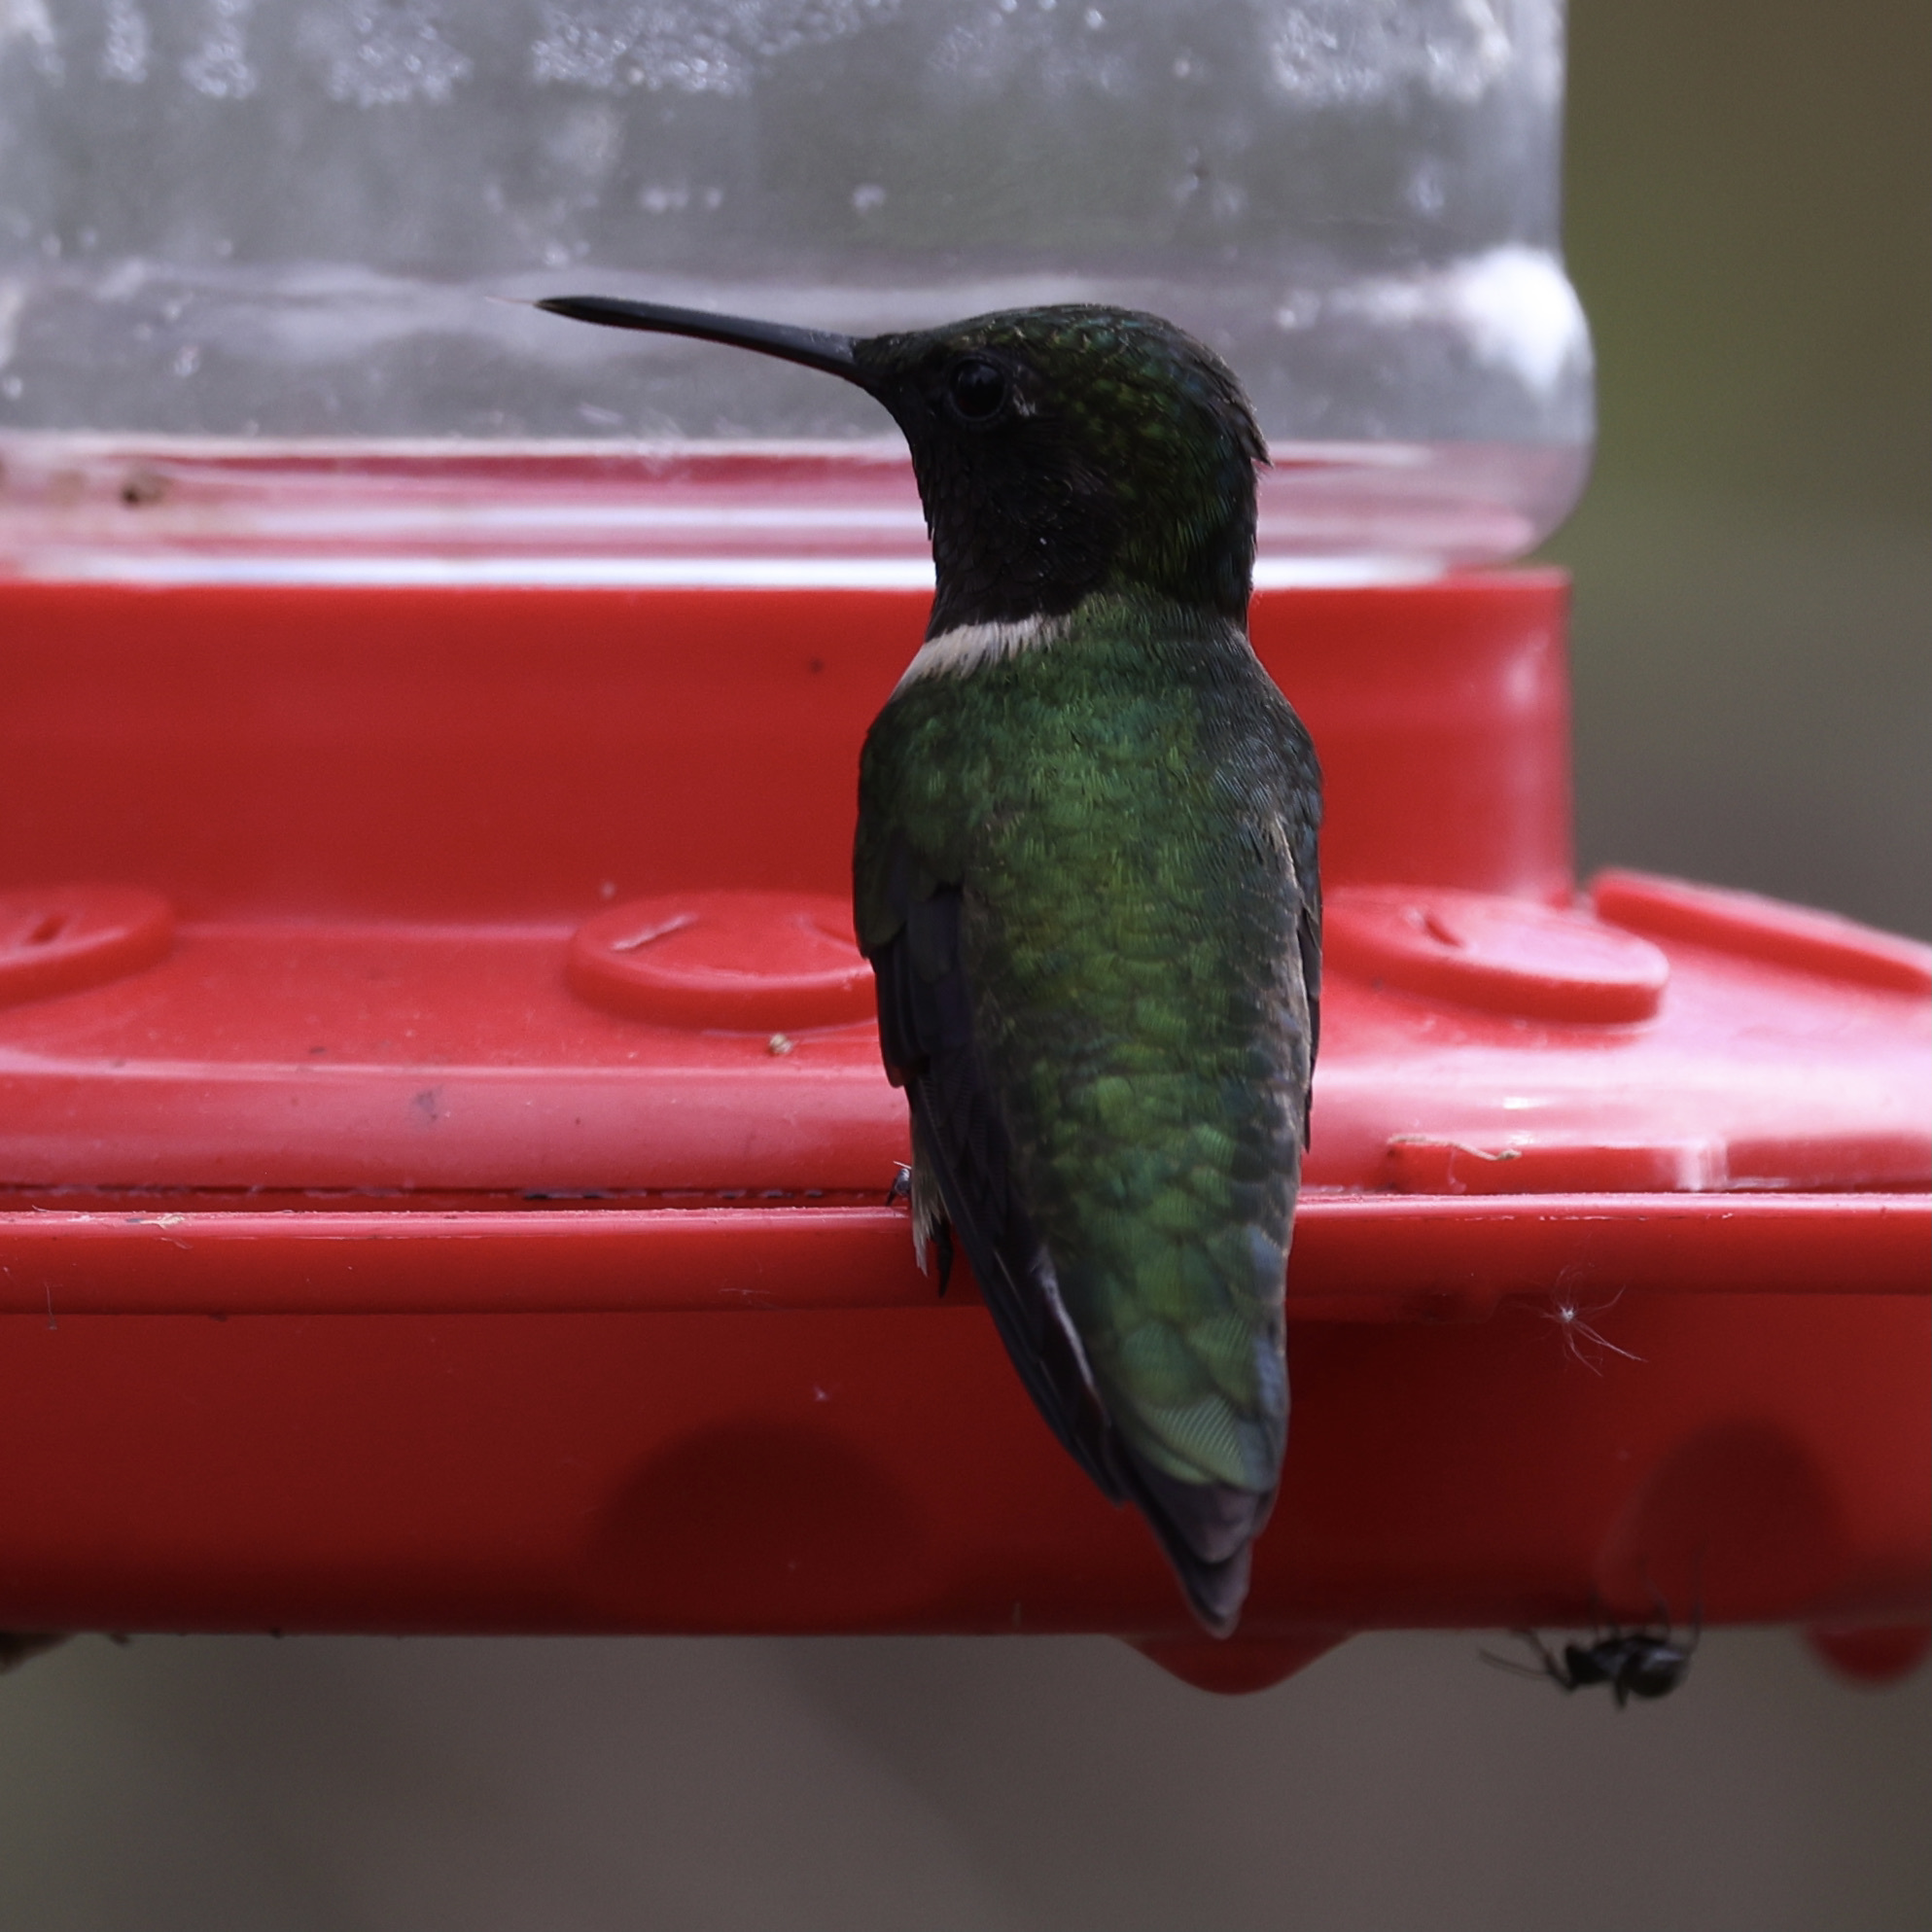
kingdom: Animalia
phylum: Chordata
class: Aves
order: Apodiformes
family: Trochilidae
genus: Archilochus
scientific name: Archilochus colubris
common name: Ruby-throated hummingbird
